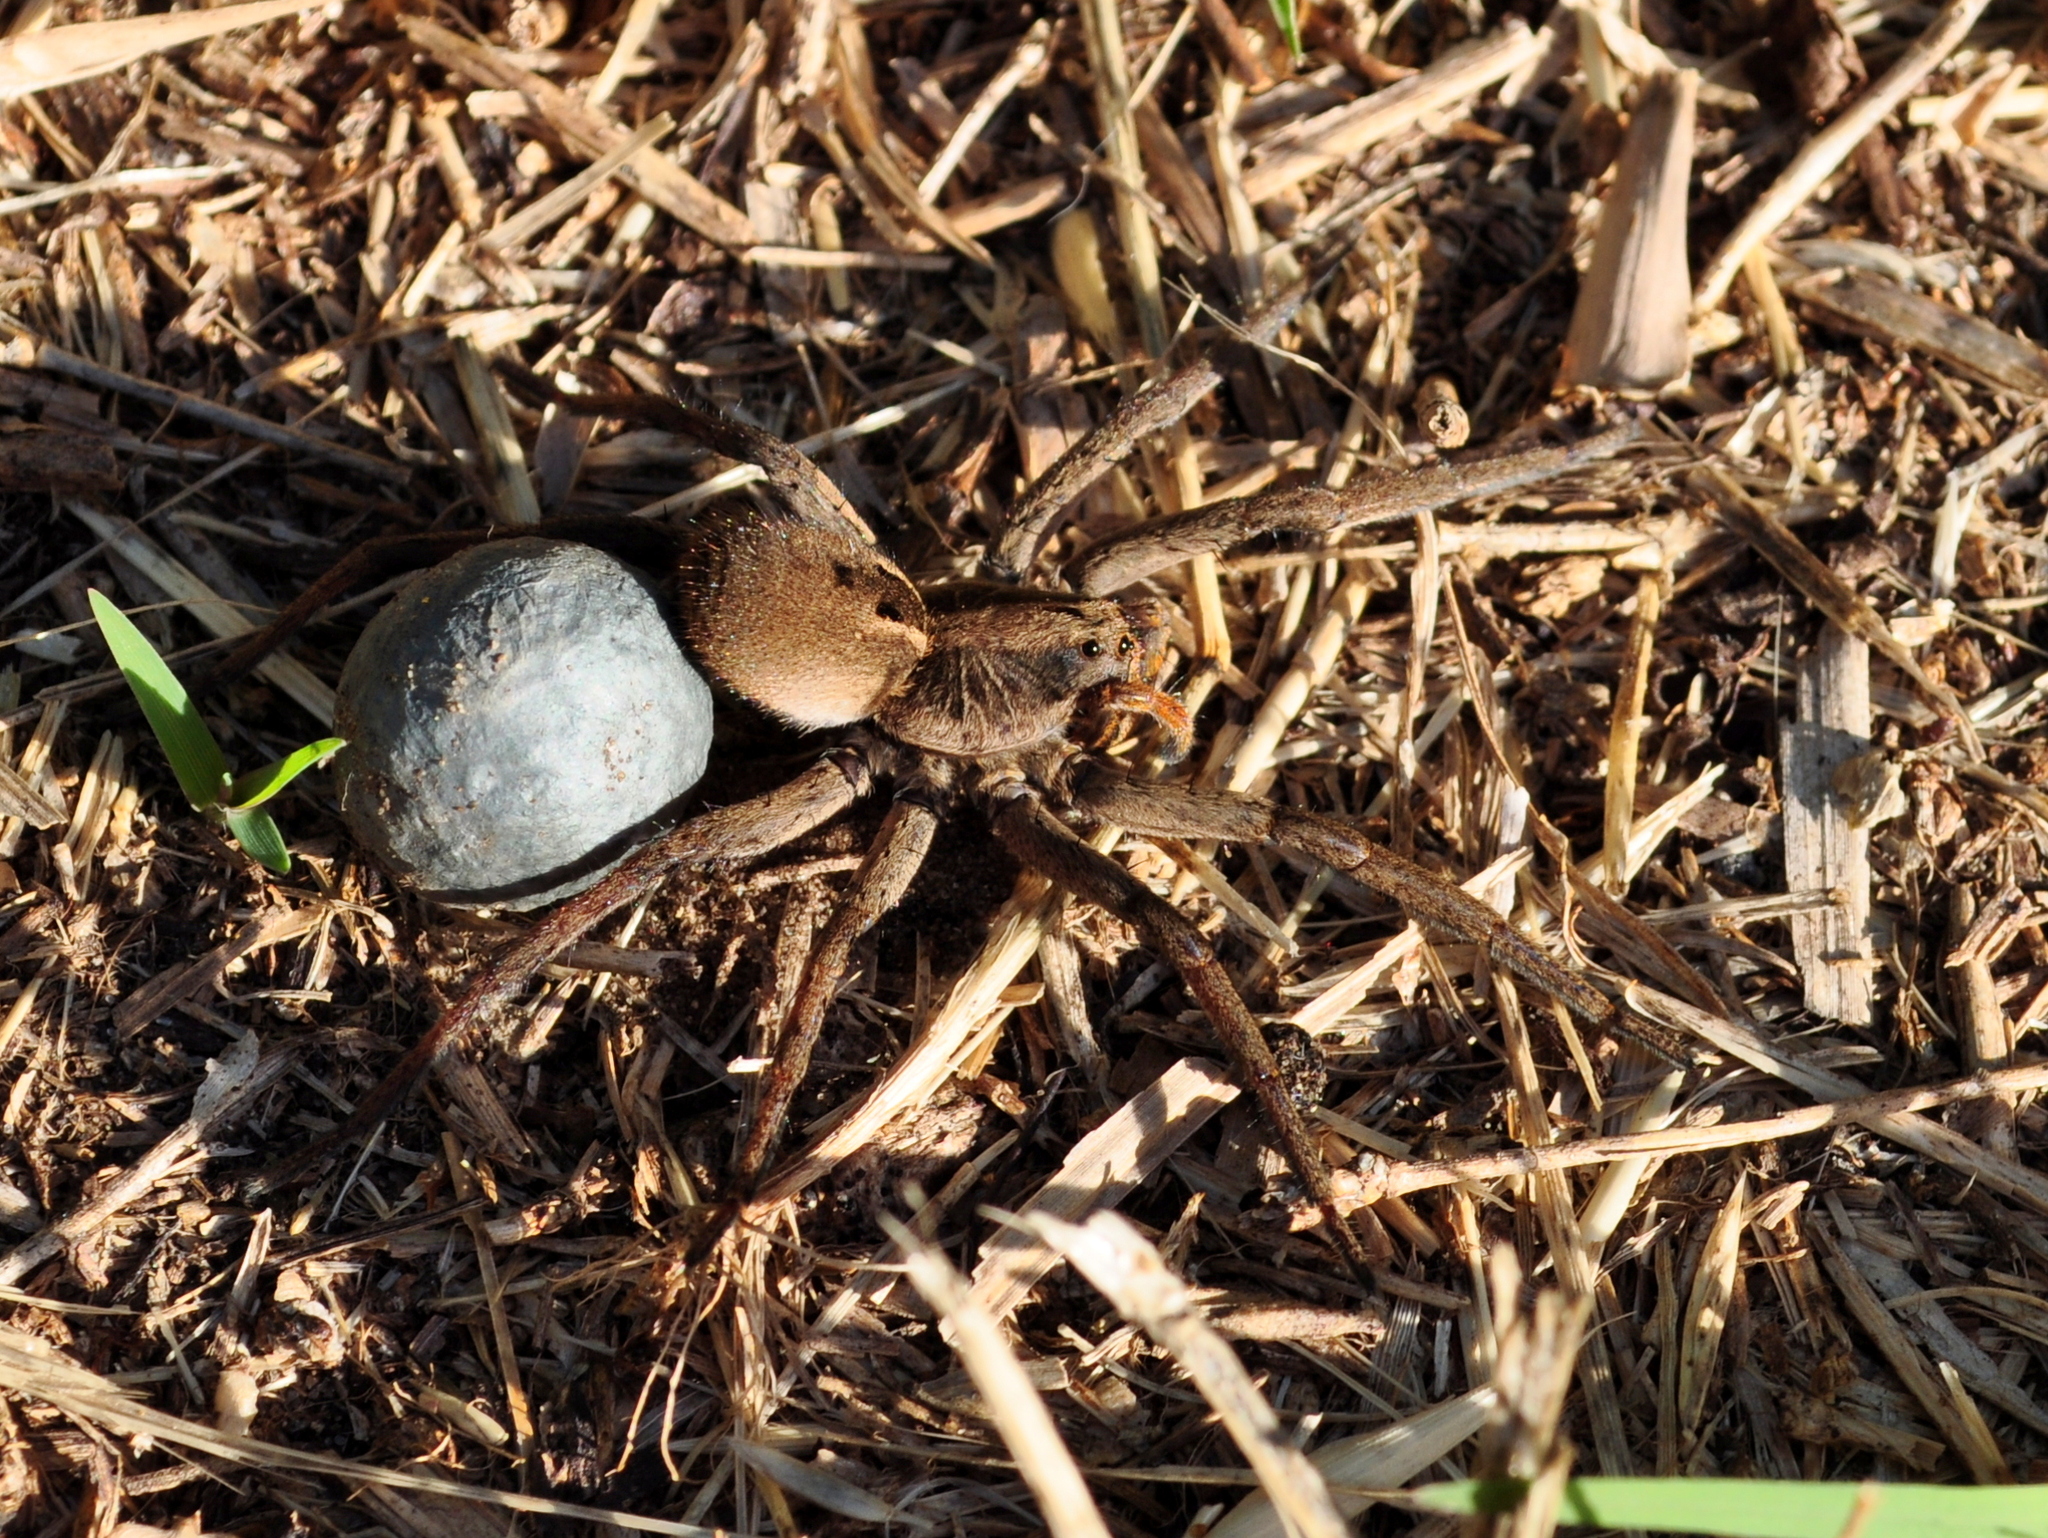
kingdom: Animalia
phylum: Arthropoda
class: Arachnida
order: Araneae
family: Lycosidae
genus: Lycosa
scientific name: Lycosa erythrognatha
